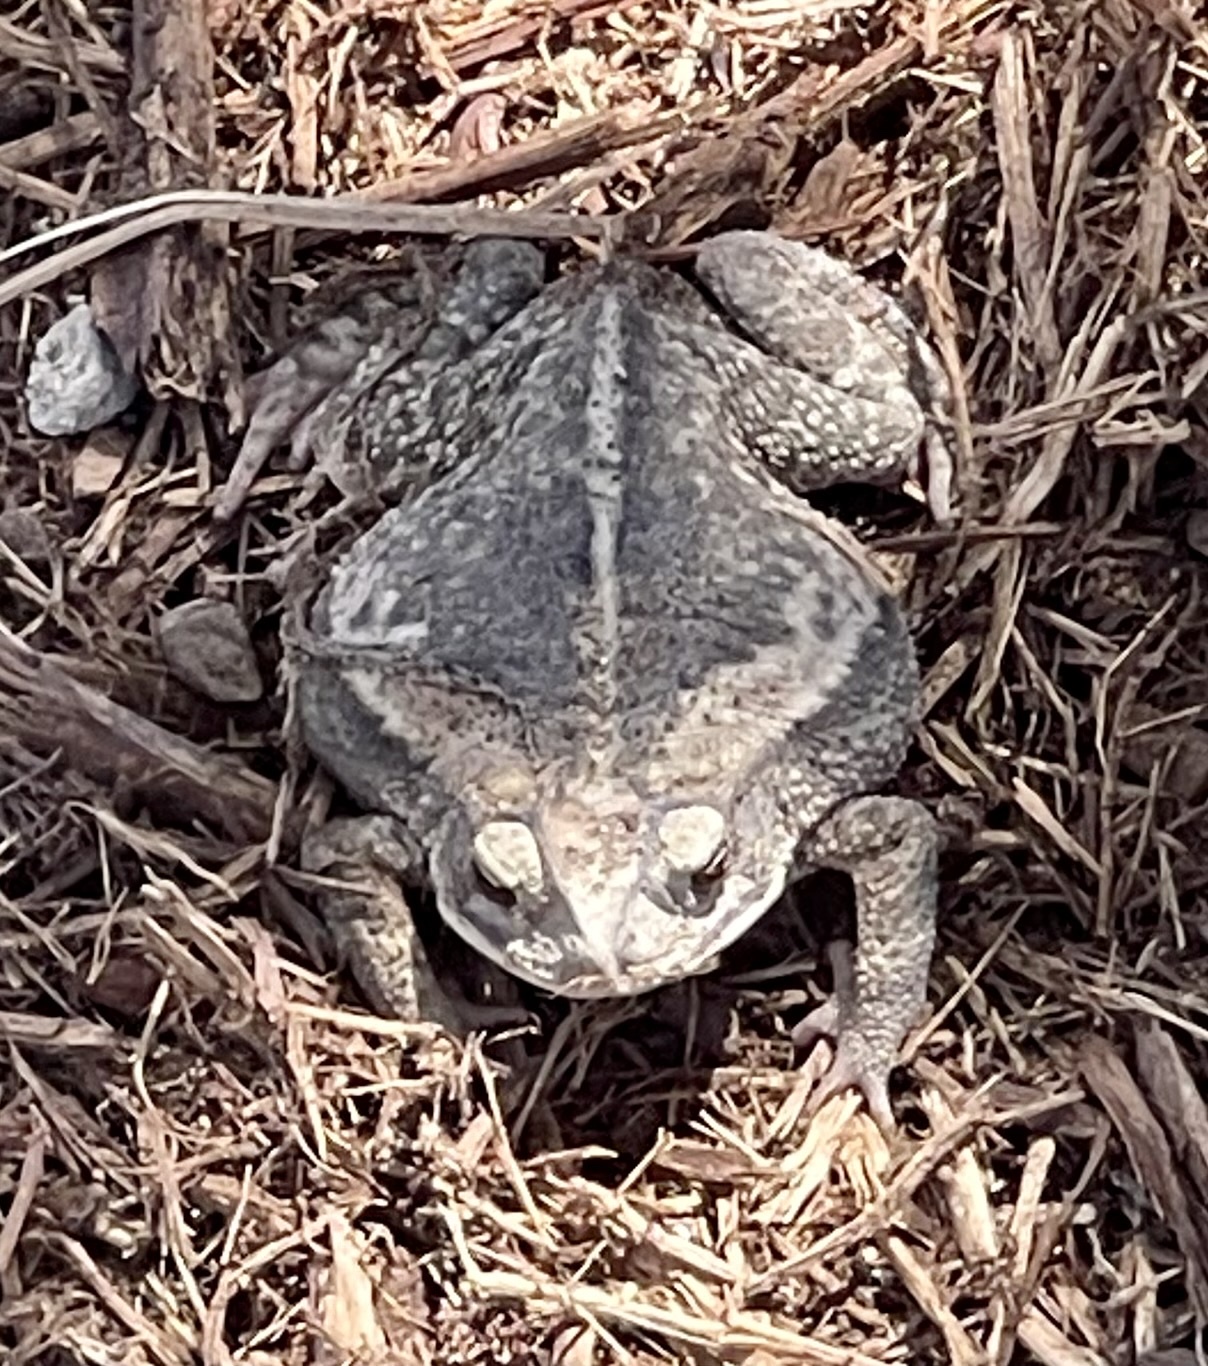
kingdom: Animalia
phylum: Chordata
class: Amphibia
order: Anura
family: Bufonidae
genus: Incilius
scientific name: Incilius nebulifer
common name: Gulf coast toad
